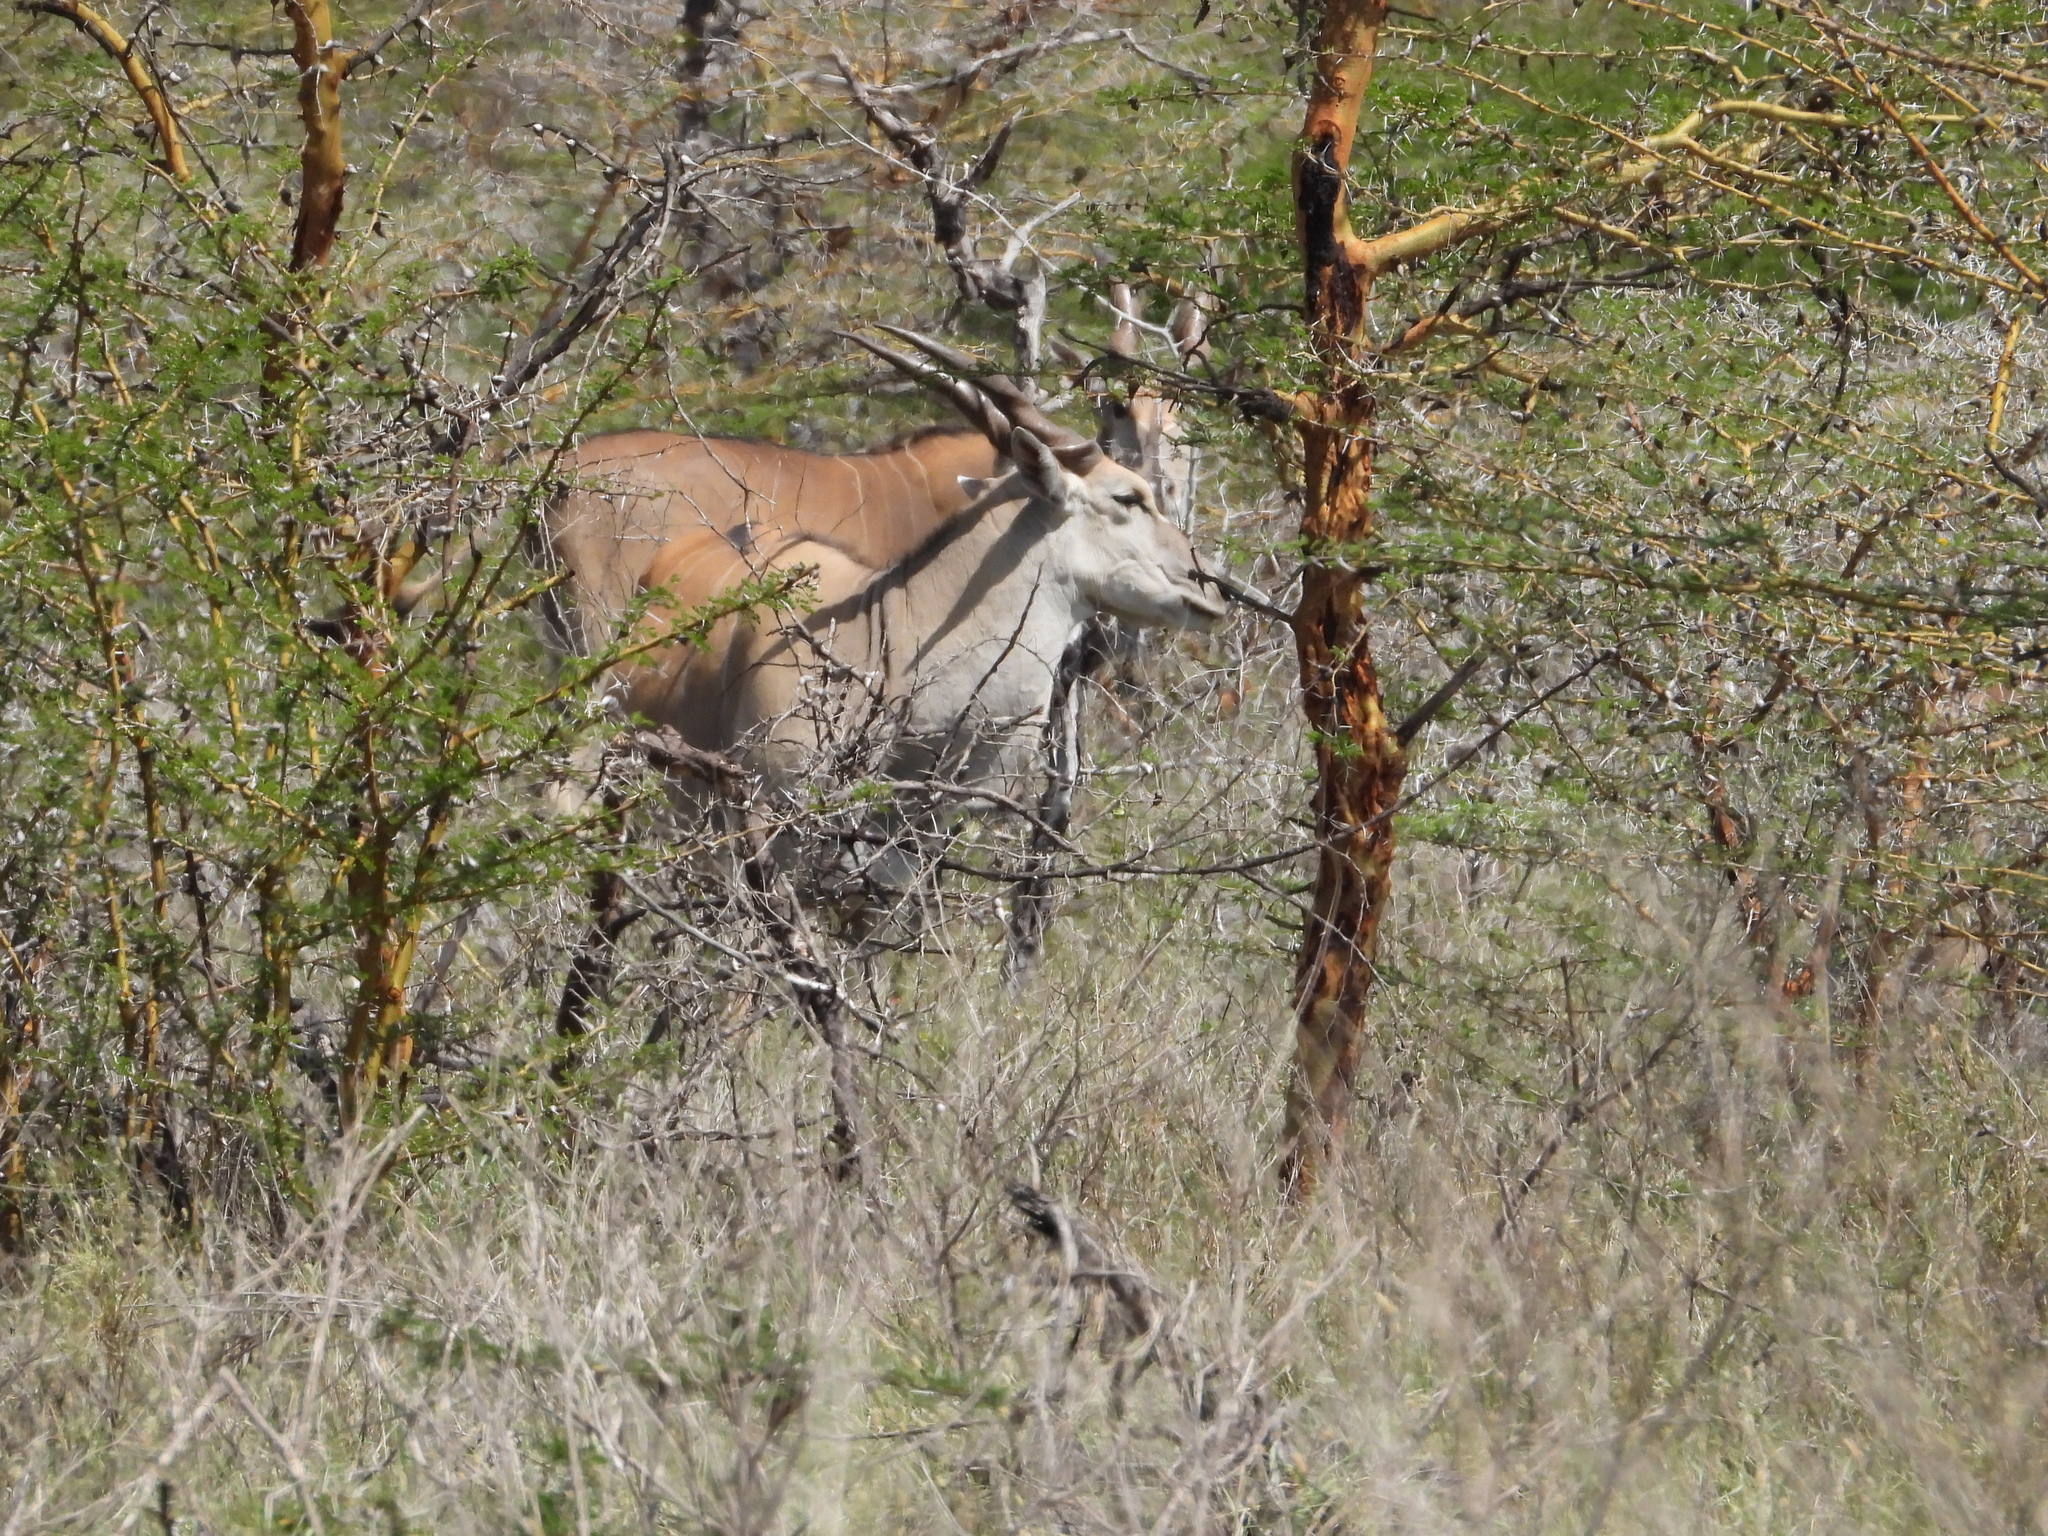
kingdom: Animalia
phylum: Chordata
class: Mammalia
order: Artiodactyla
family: Bovidae
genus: Taurotragus
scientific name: Taurotragus oryx
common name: Common eland
